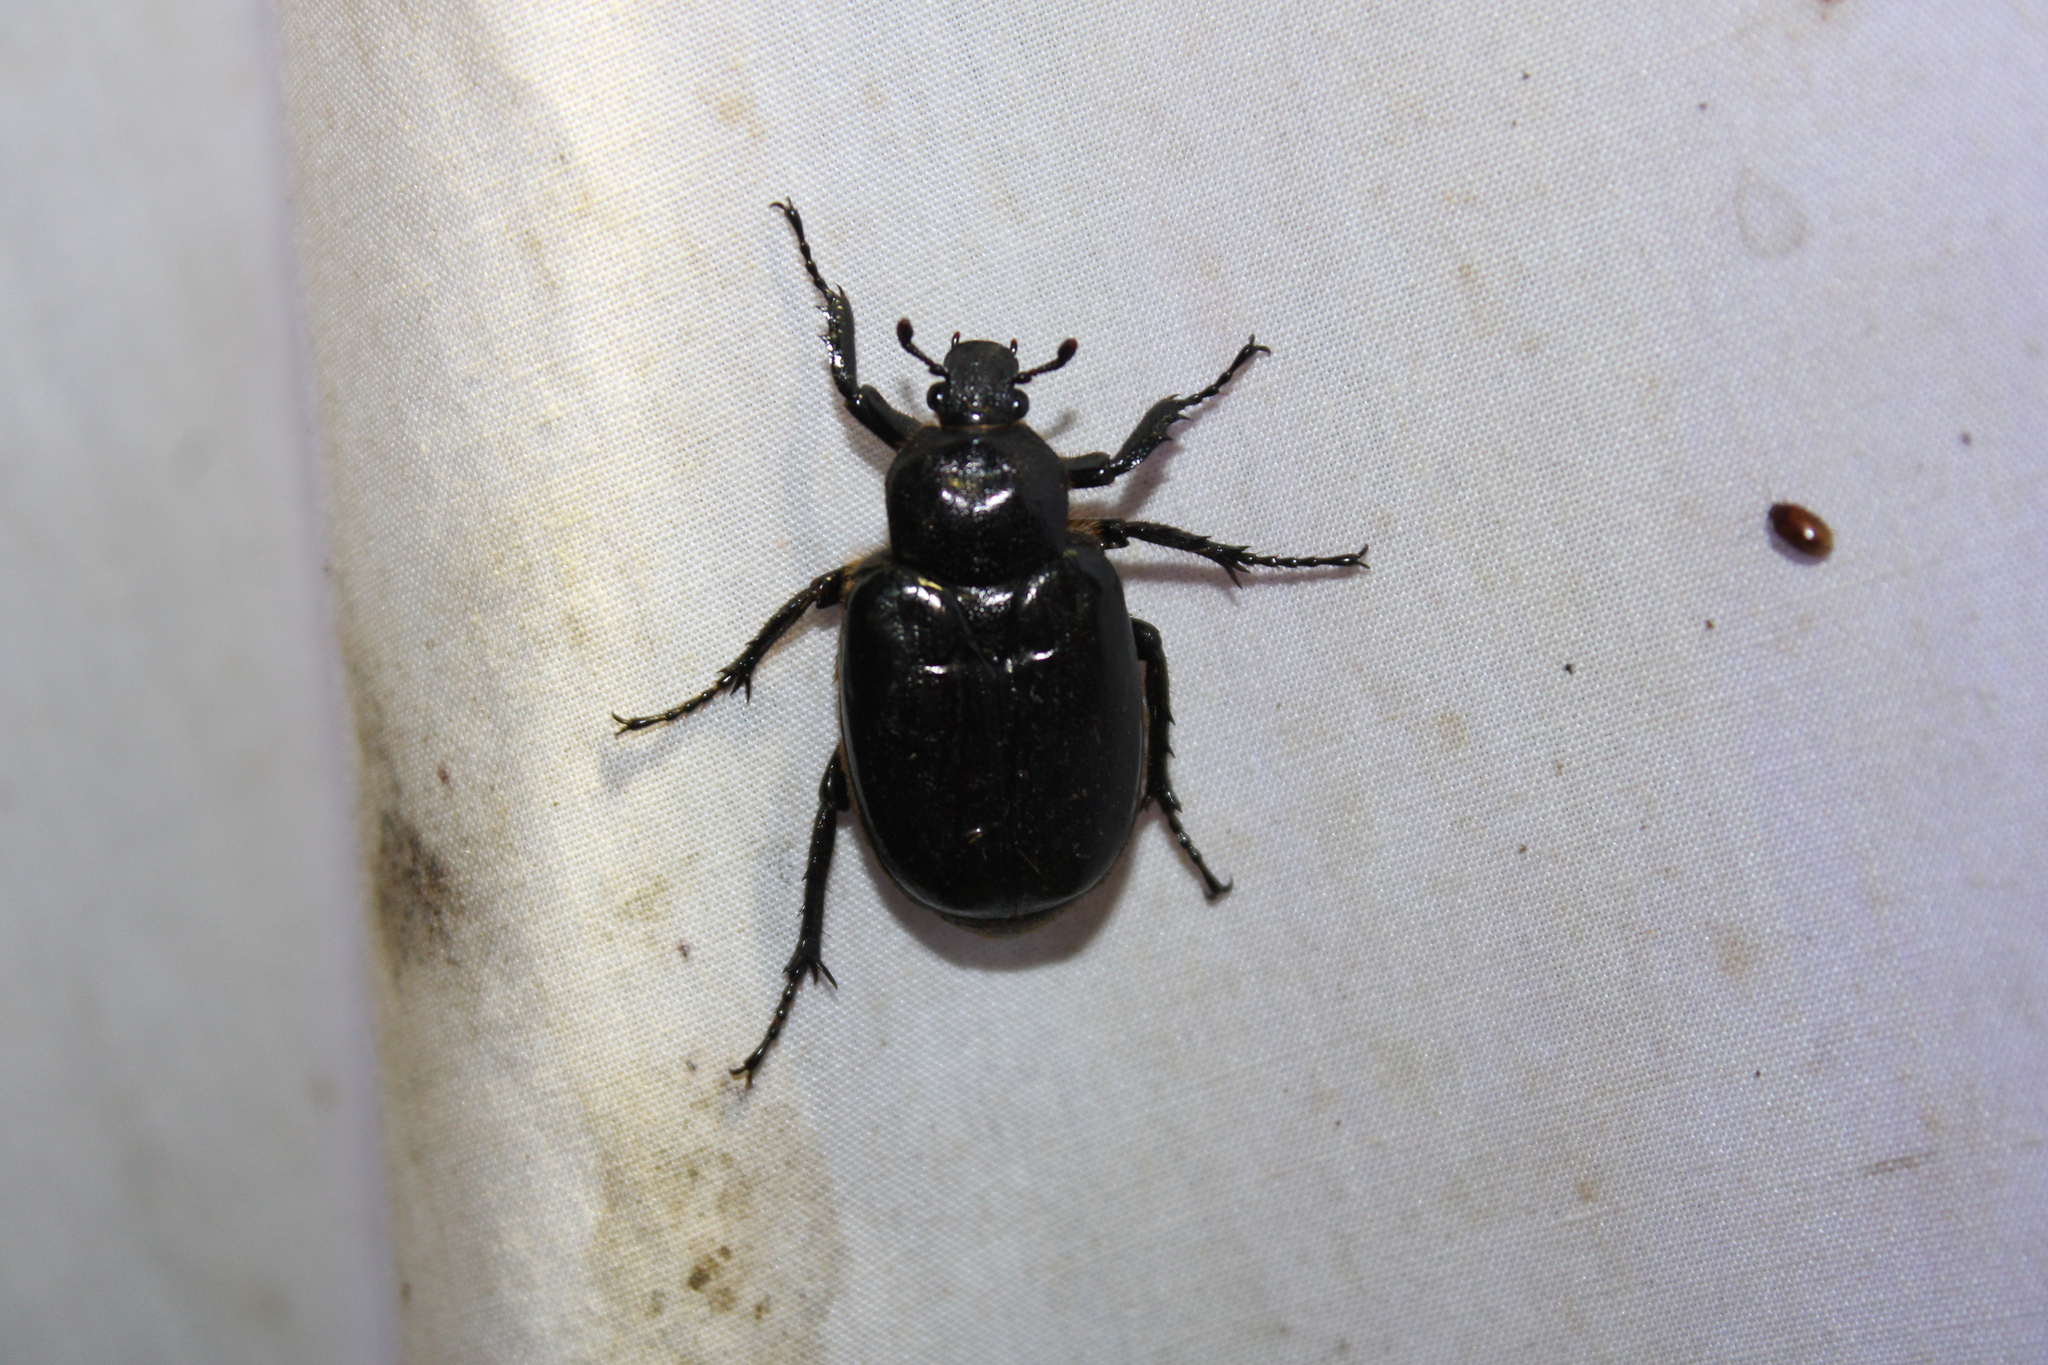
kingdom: Animalia
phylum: Arthropoda
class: Insecta
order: Coleoptera
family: Scarabaeidae
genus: Osmoderma
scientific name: Osmoderma eremicola
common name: Hermit flower beetle
